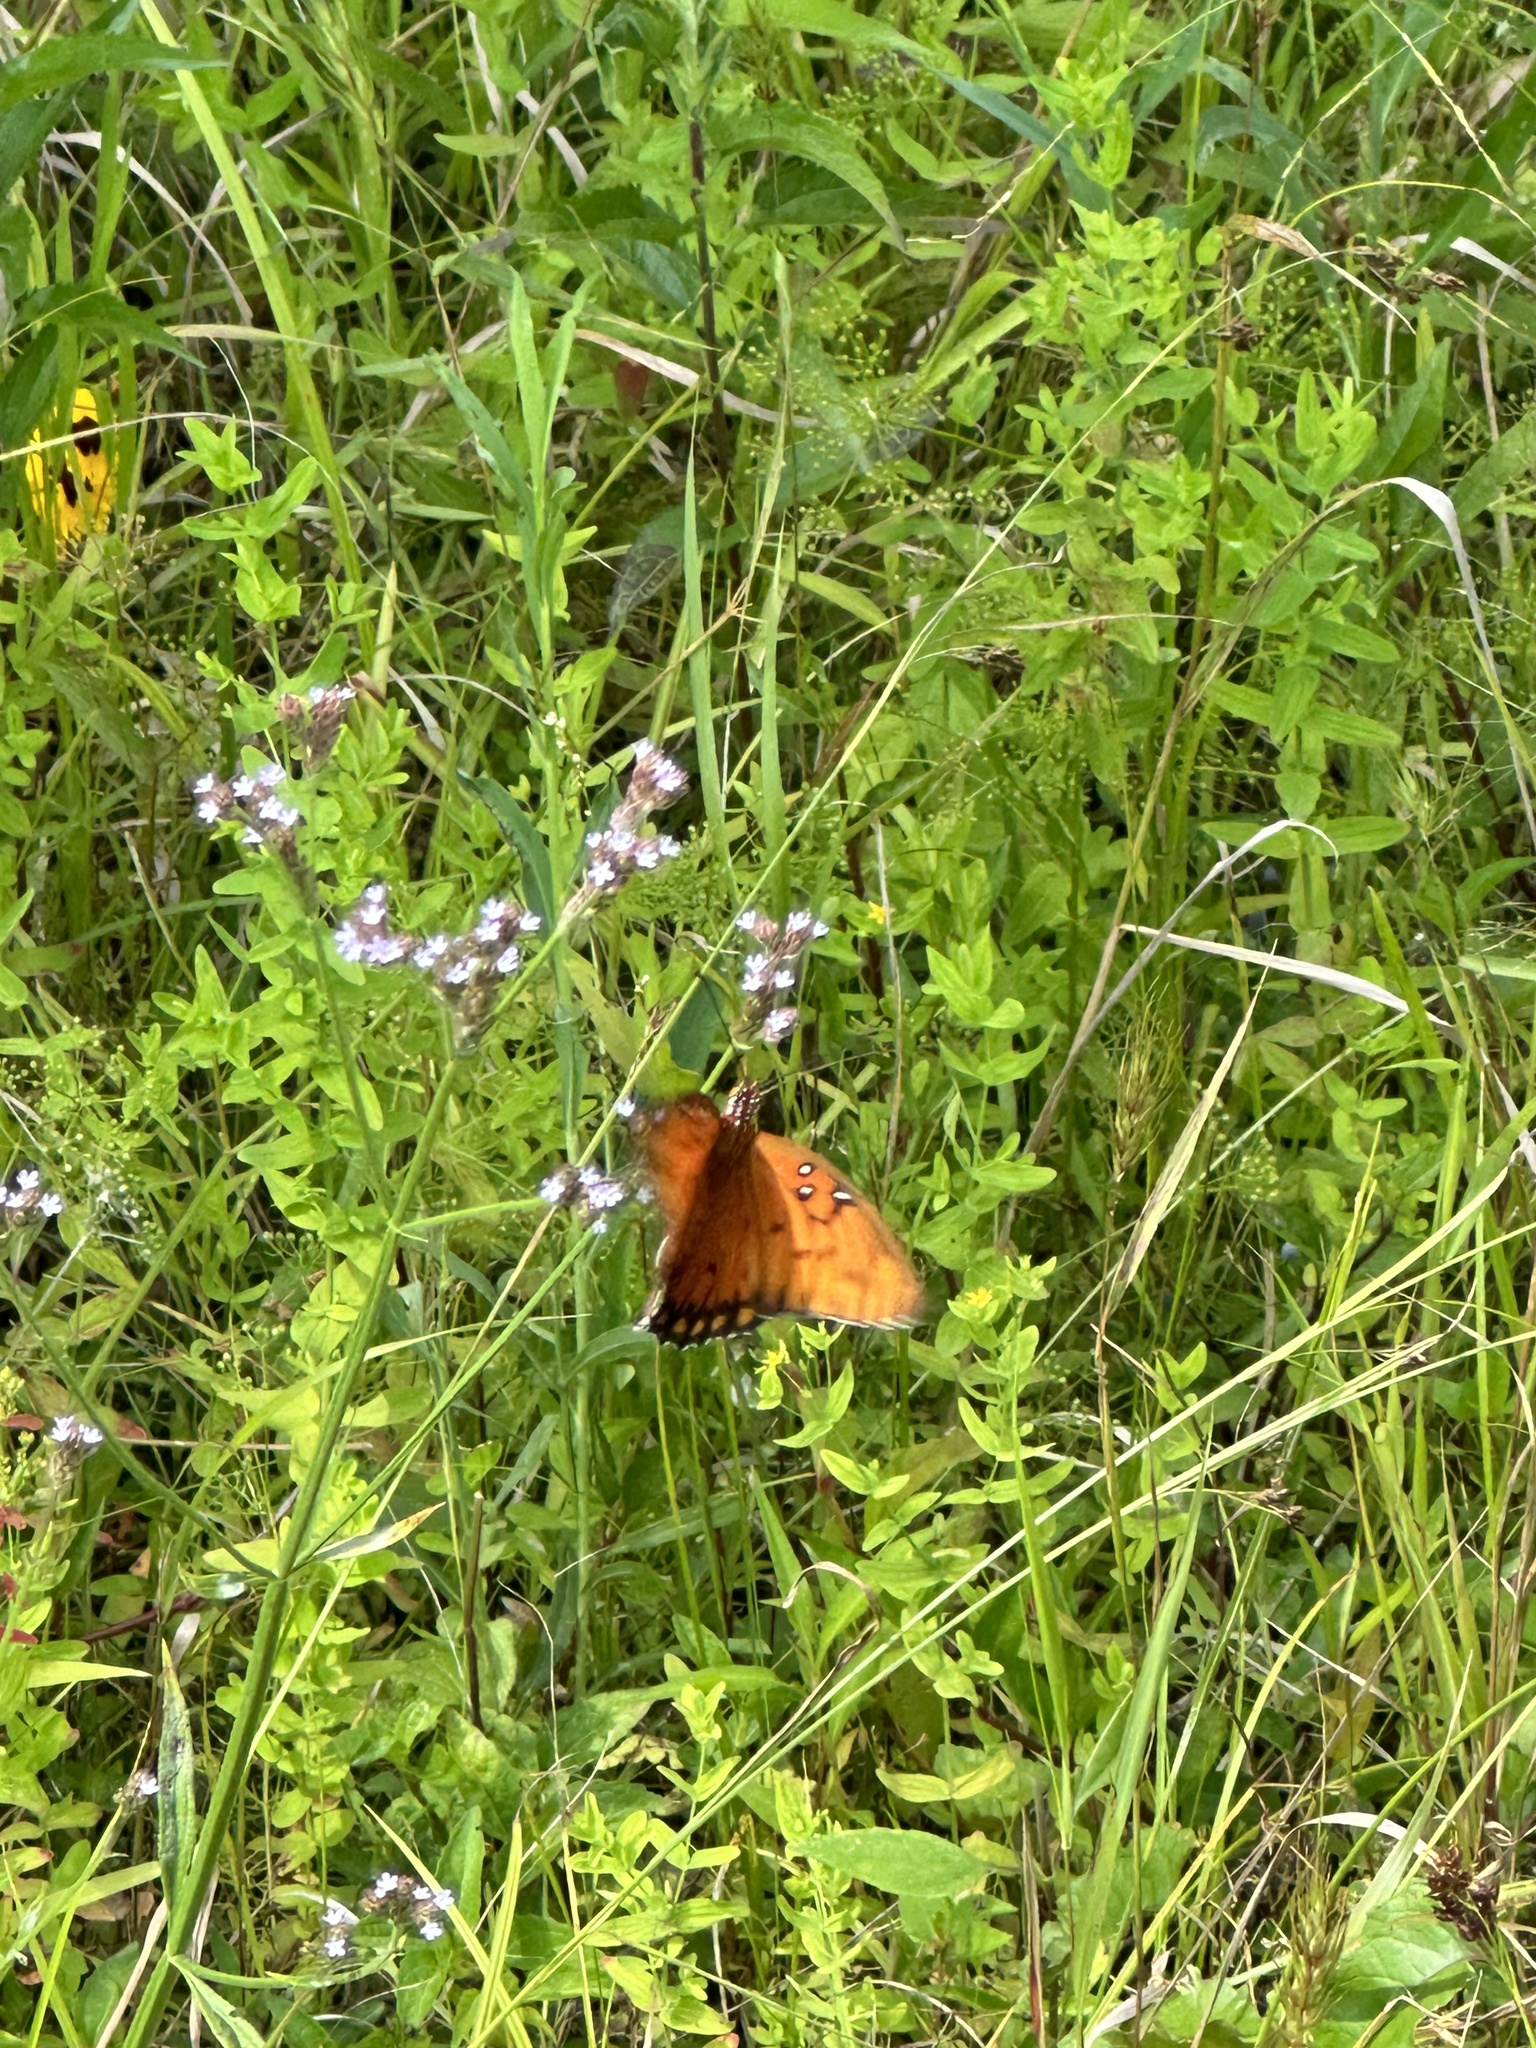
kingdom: Animalia
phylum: Arthropoda
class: Insecta
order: Lepidoptera
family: Nymphalidae
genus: Dione
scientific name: Dione vanillae
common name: Gulf fritillary
